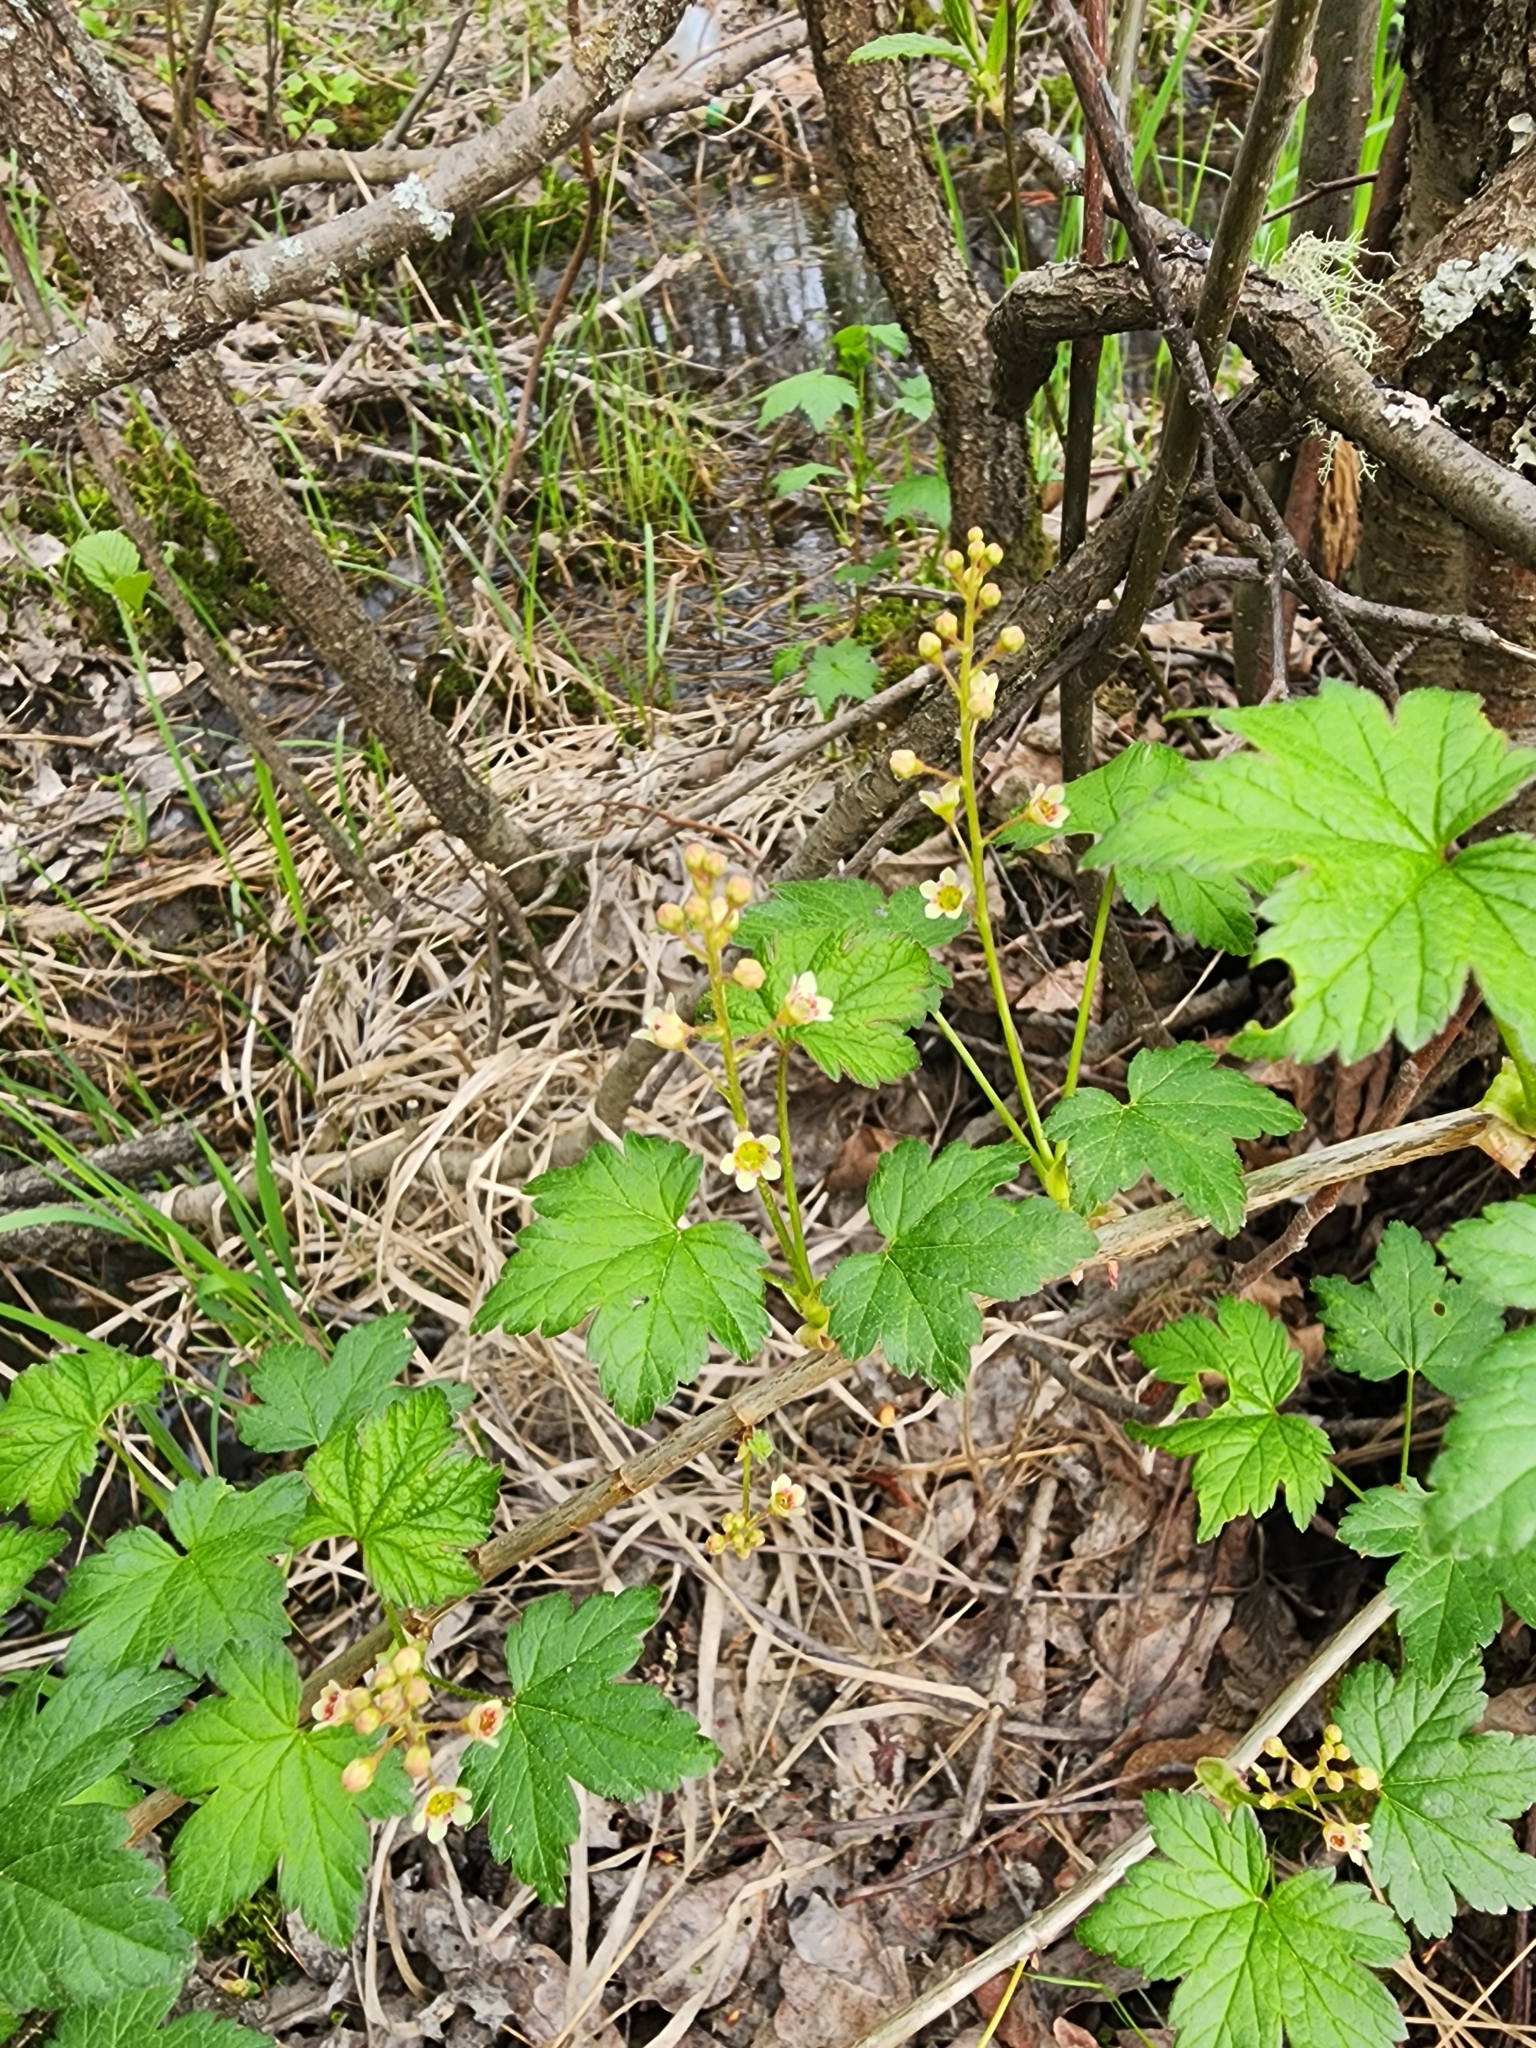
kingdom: Plantae
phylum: Tracheophyta
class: Magnoliopsida
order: Saxifragales
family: Grossulariaceae
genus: Ribes
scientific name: Ribes glandulosum
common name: Skunk currant
